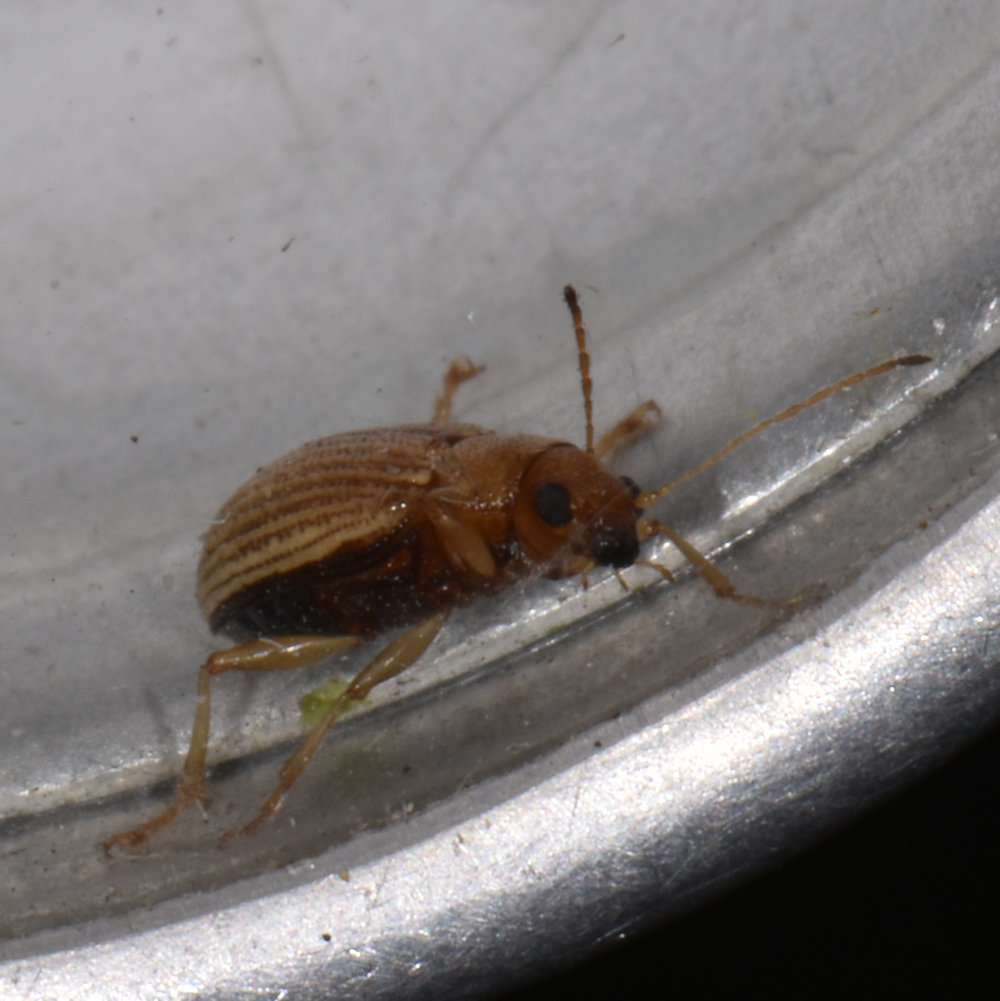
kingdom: Animalia
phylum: Arthropoda
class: Insecta
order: Coleoptera
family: Chrysomelidae
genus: Colaspis
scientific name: Colaspis brunnea
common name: Grape colaspis
